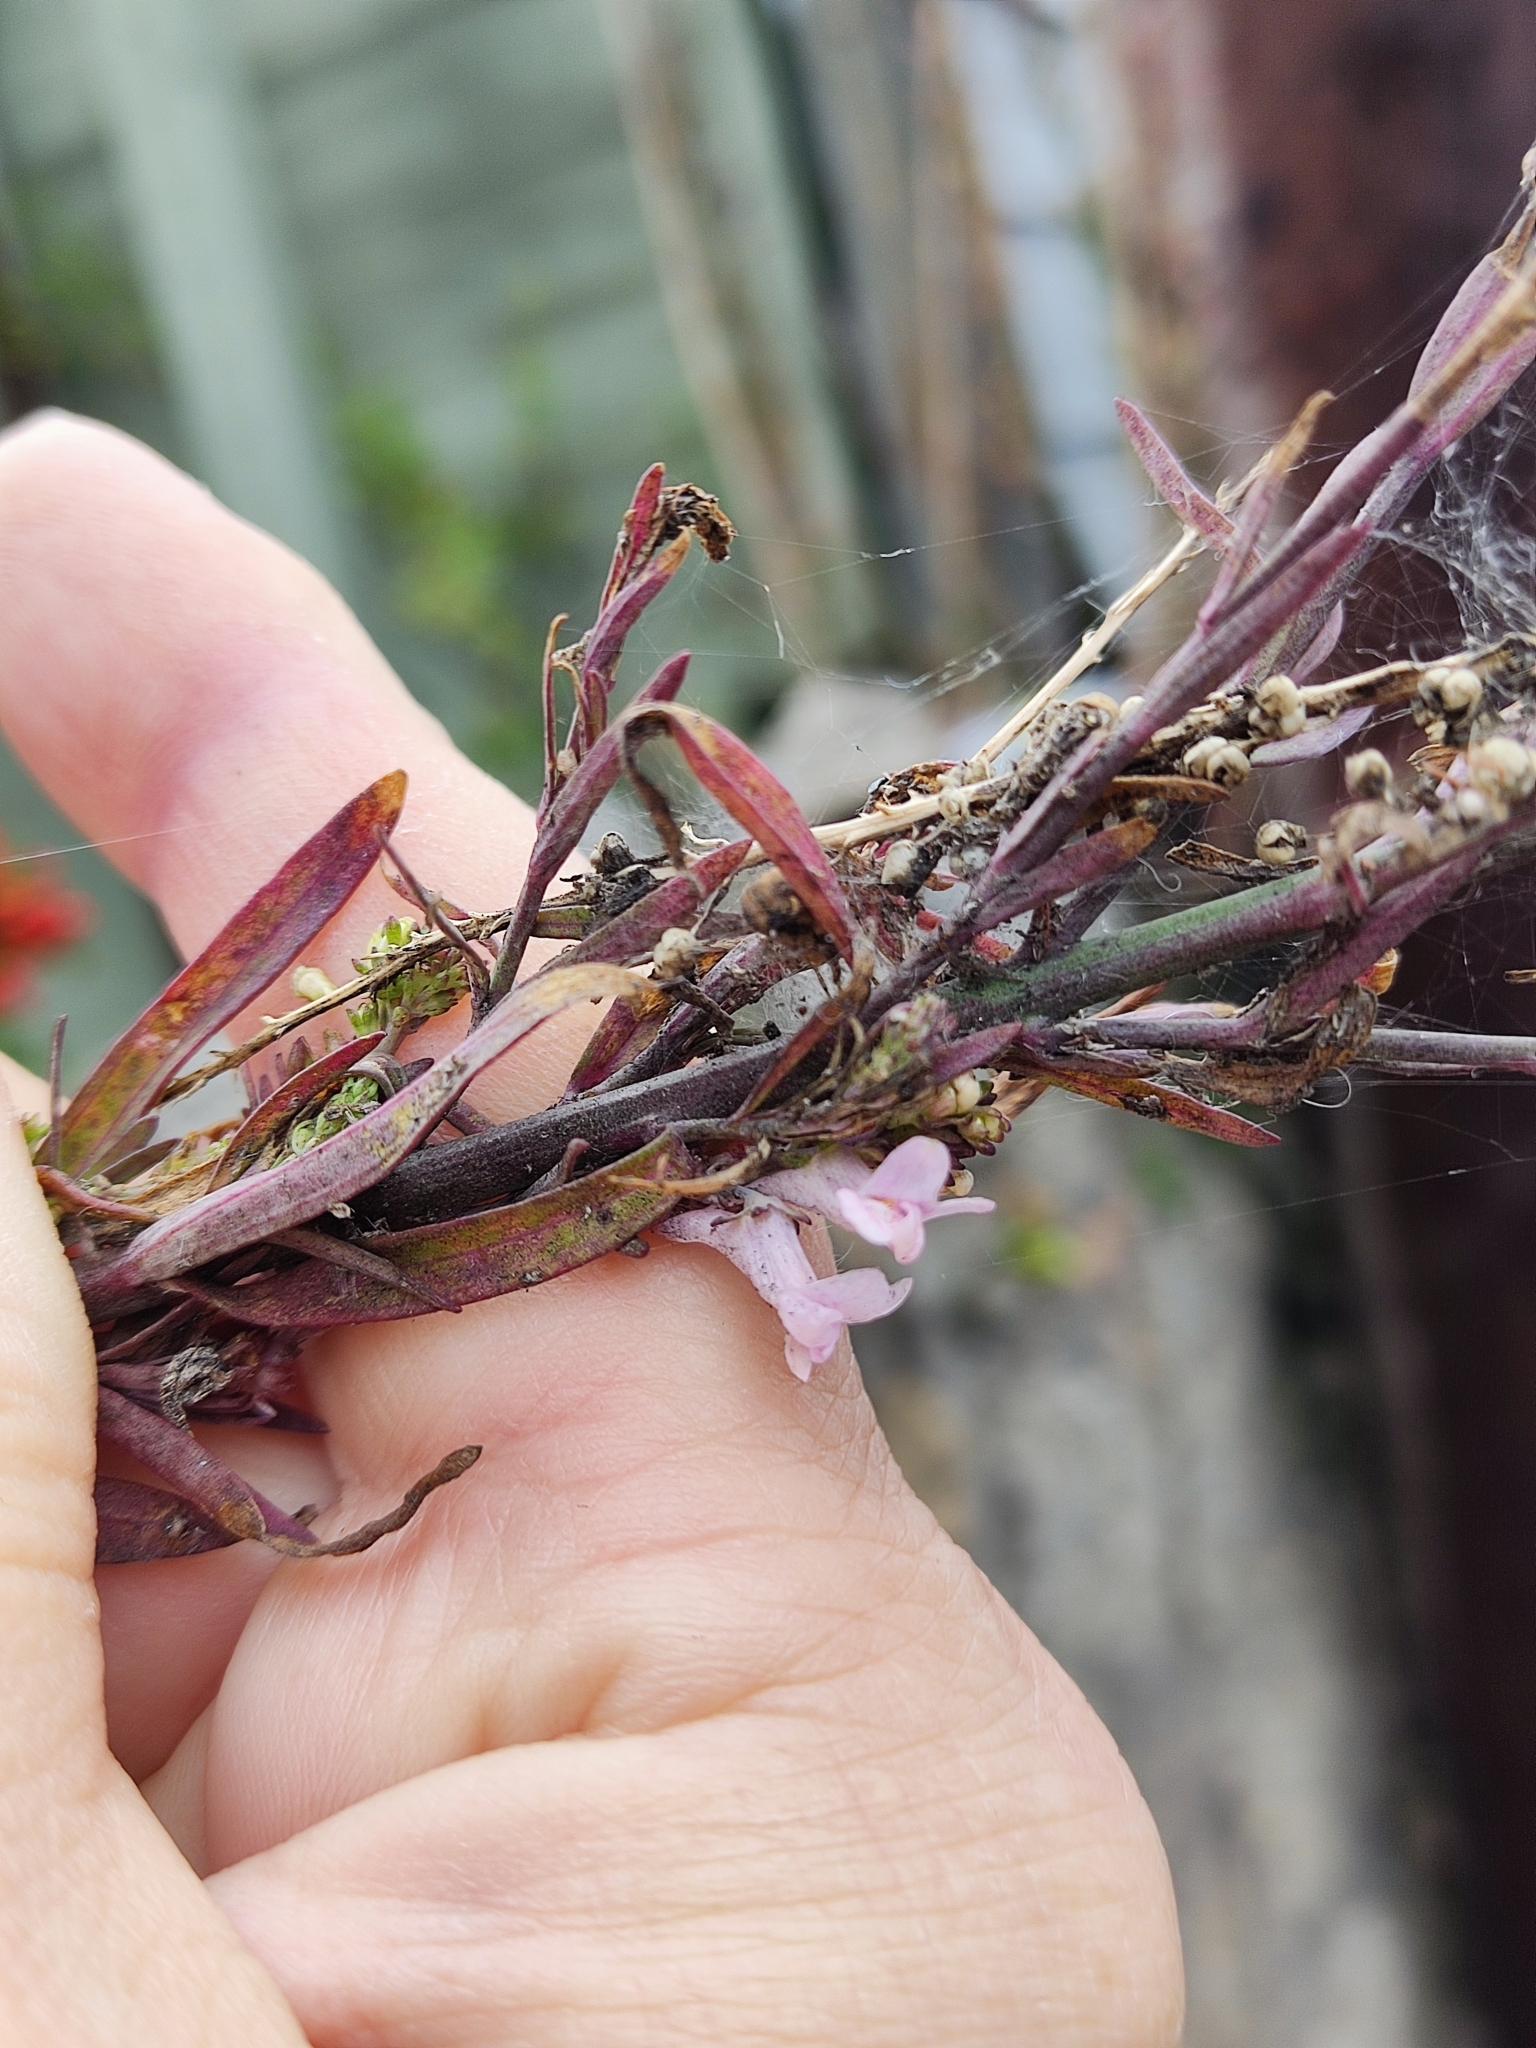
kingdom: Plantae
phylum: Tracheophyta
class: Magnoliopsida
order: Lamiales
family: Plantaginaceae
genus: Linaria
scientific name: Linaria purpurea
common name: Purple toadflax
